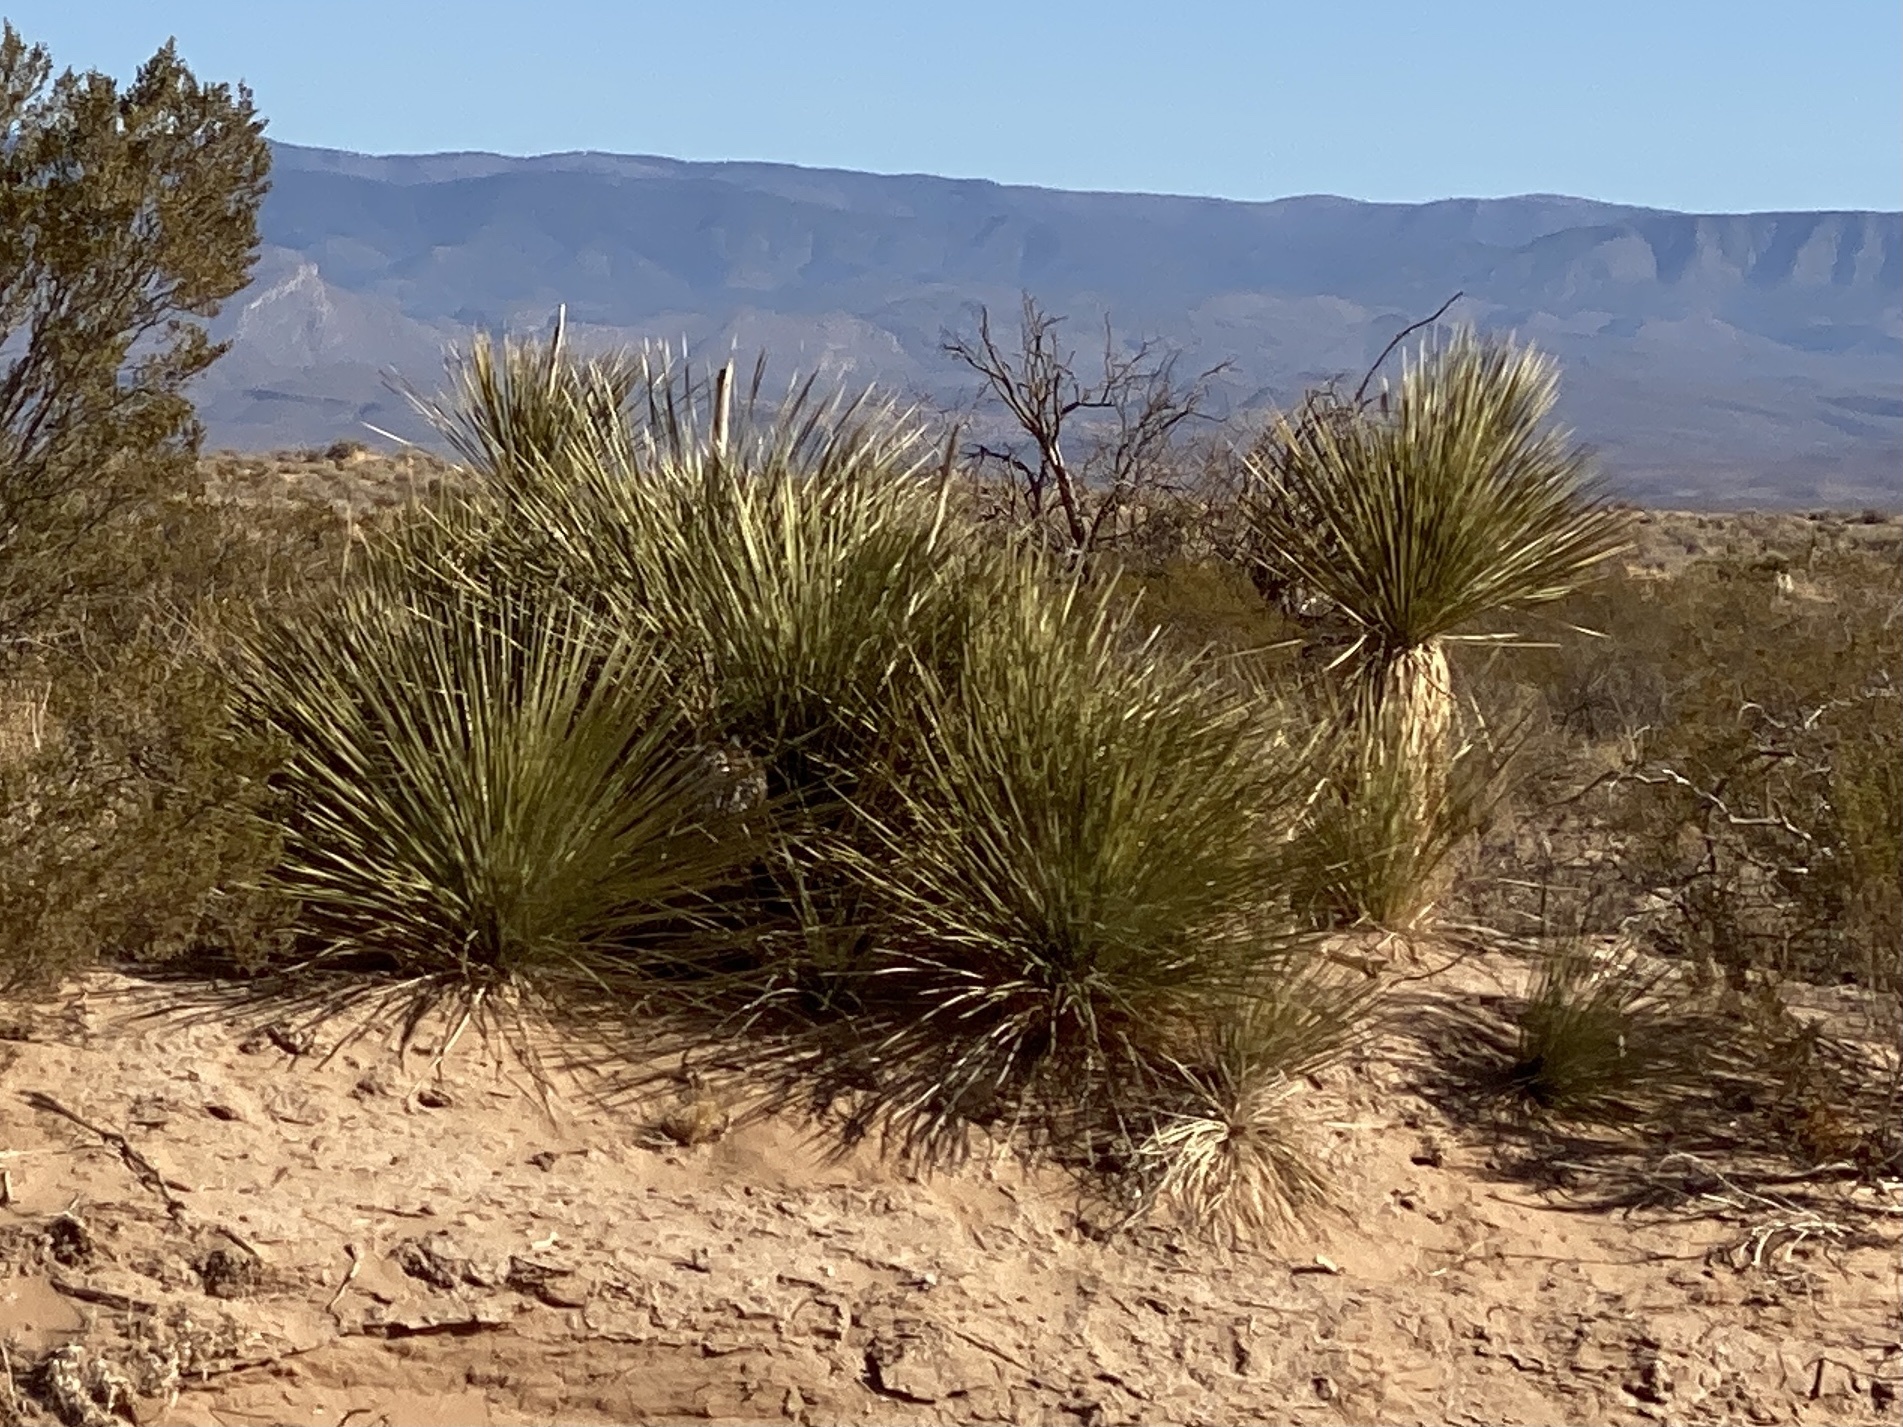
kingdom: Plantae
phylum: Tracheophyta
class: Liliopsida
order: Asparagales
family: Asparagaceae
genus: Yucca
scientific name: Yucca elata
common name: Palmella
